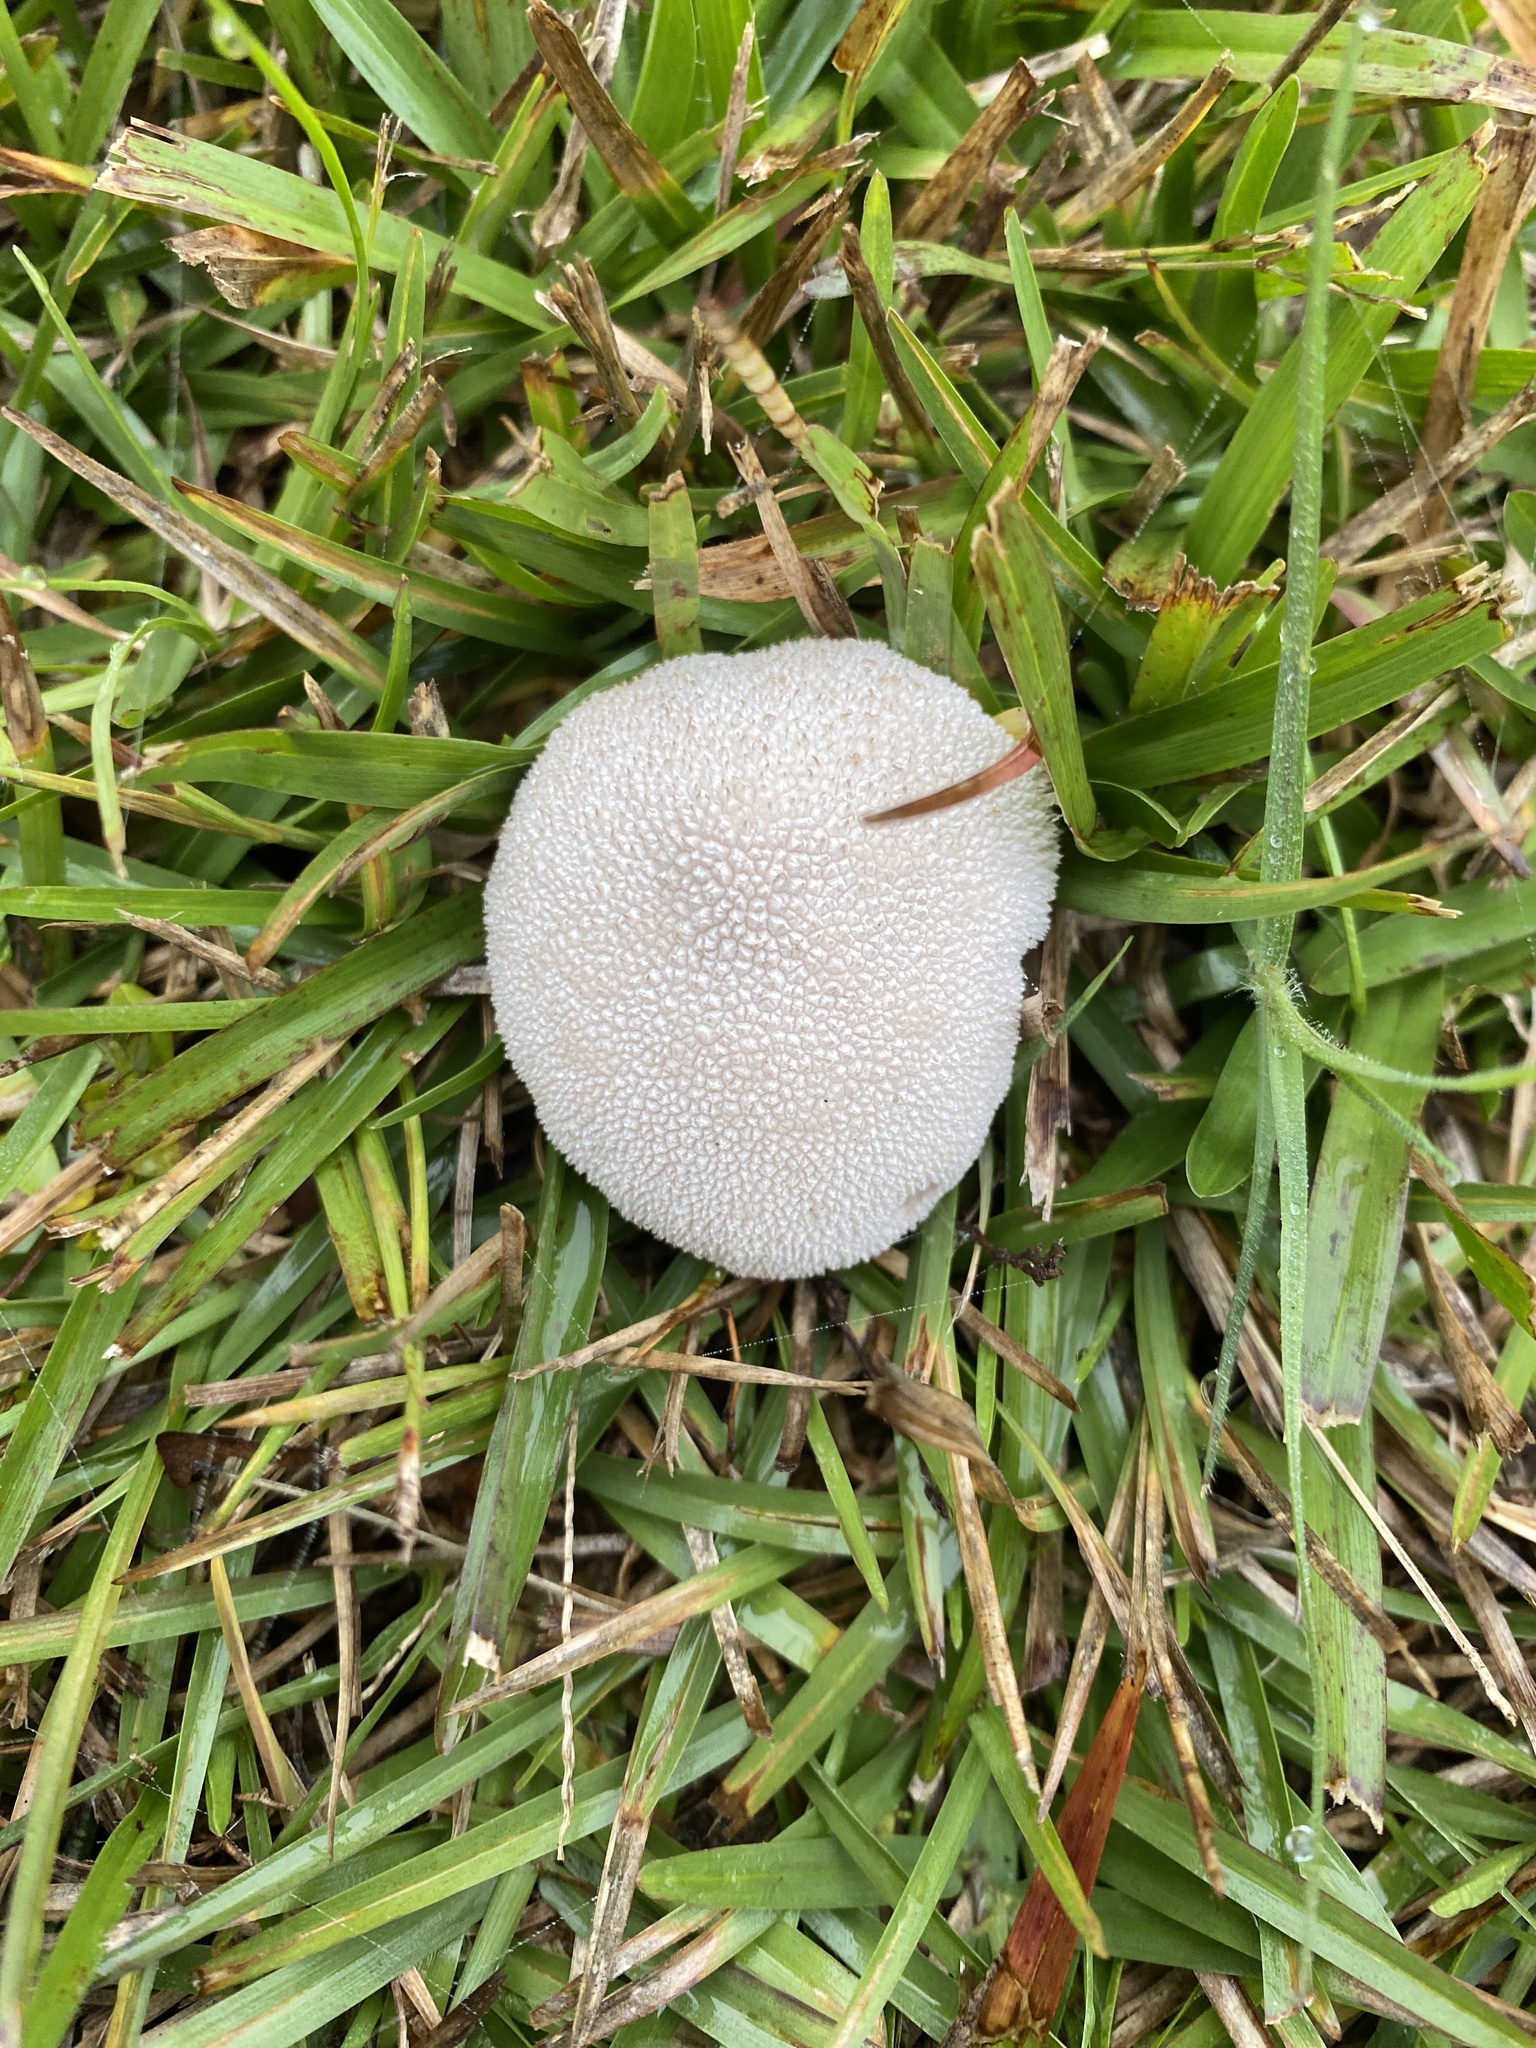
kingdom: Fungi
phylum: Basidiomycota
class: Agaricomycetes
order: Agaricales
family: Agaricaceae
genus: Lycoperdon
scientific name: Lycoperdon marginatum
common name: Peeling puffball
